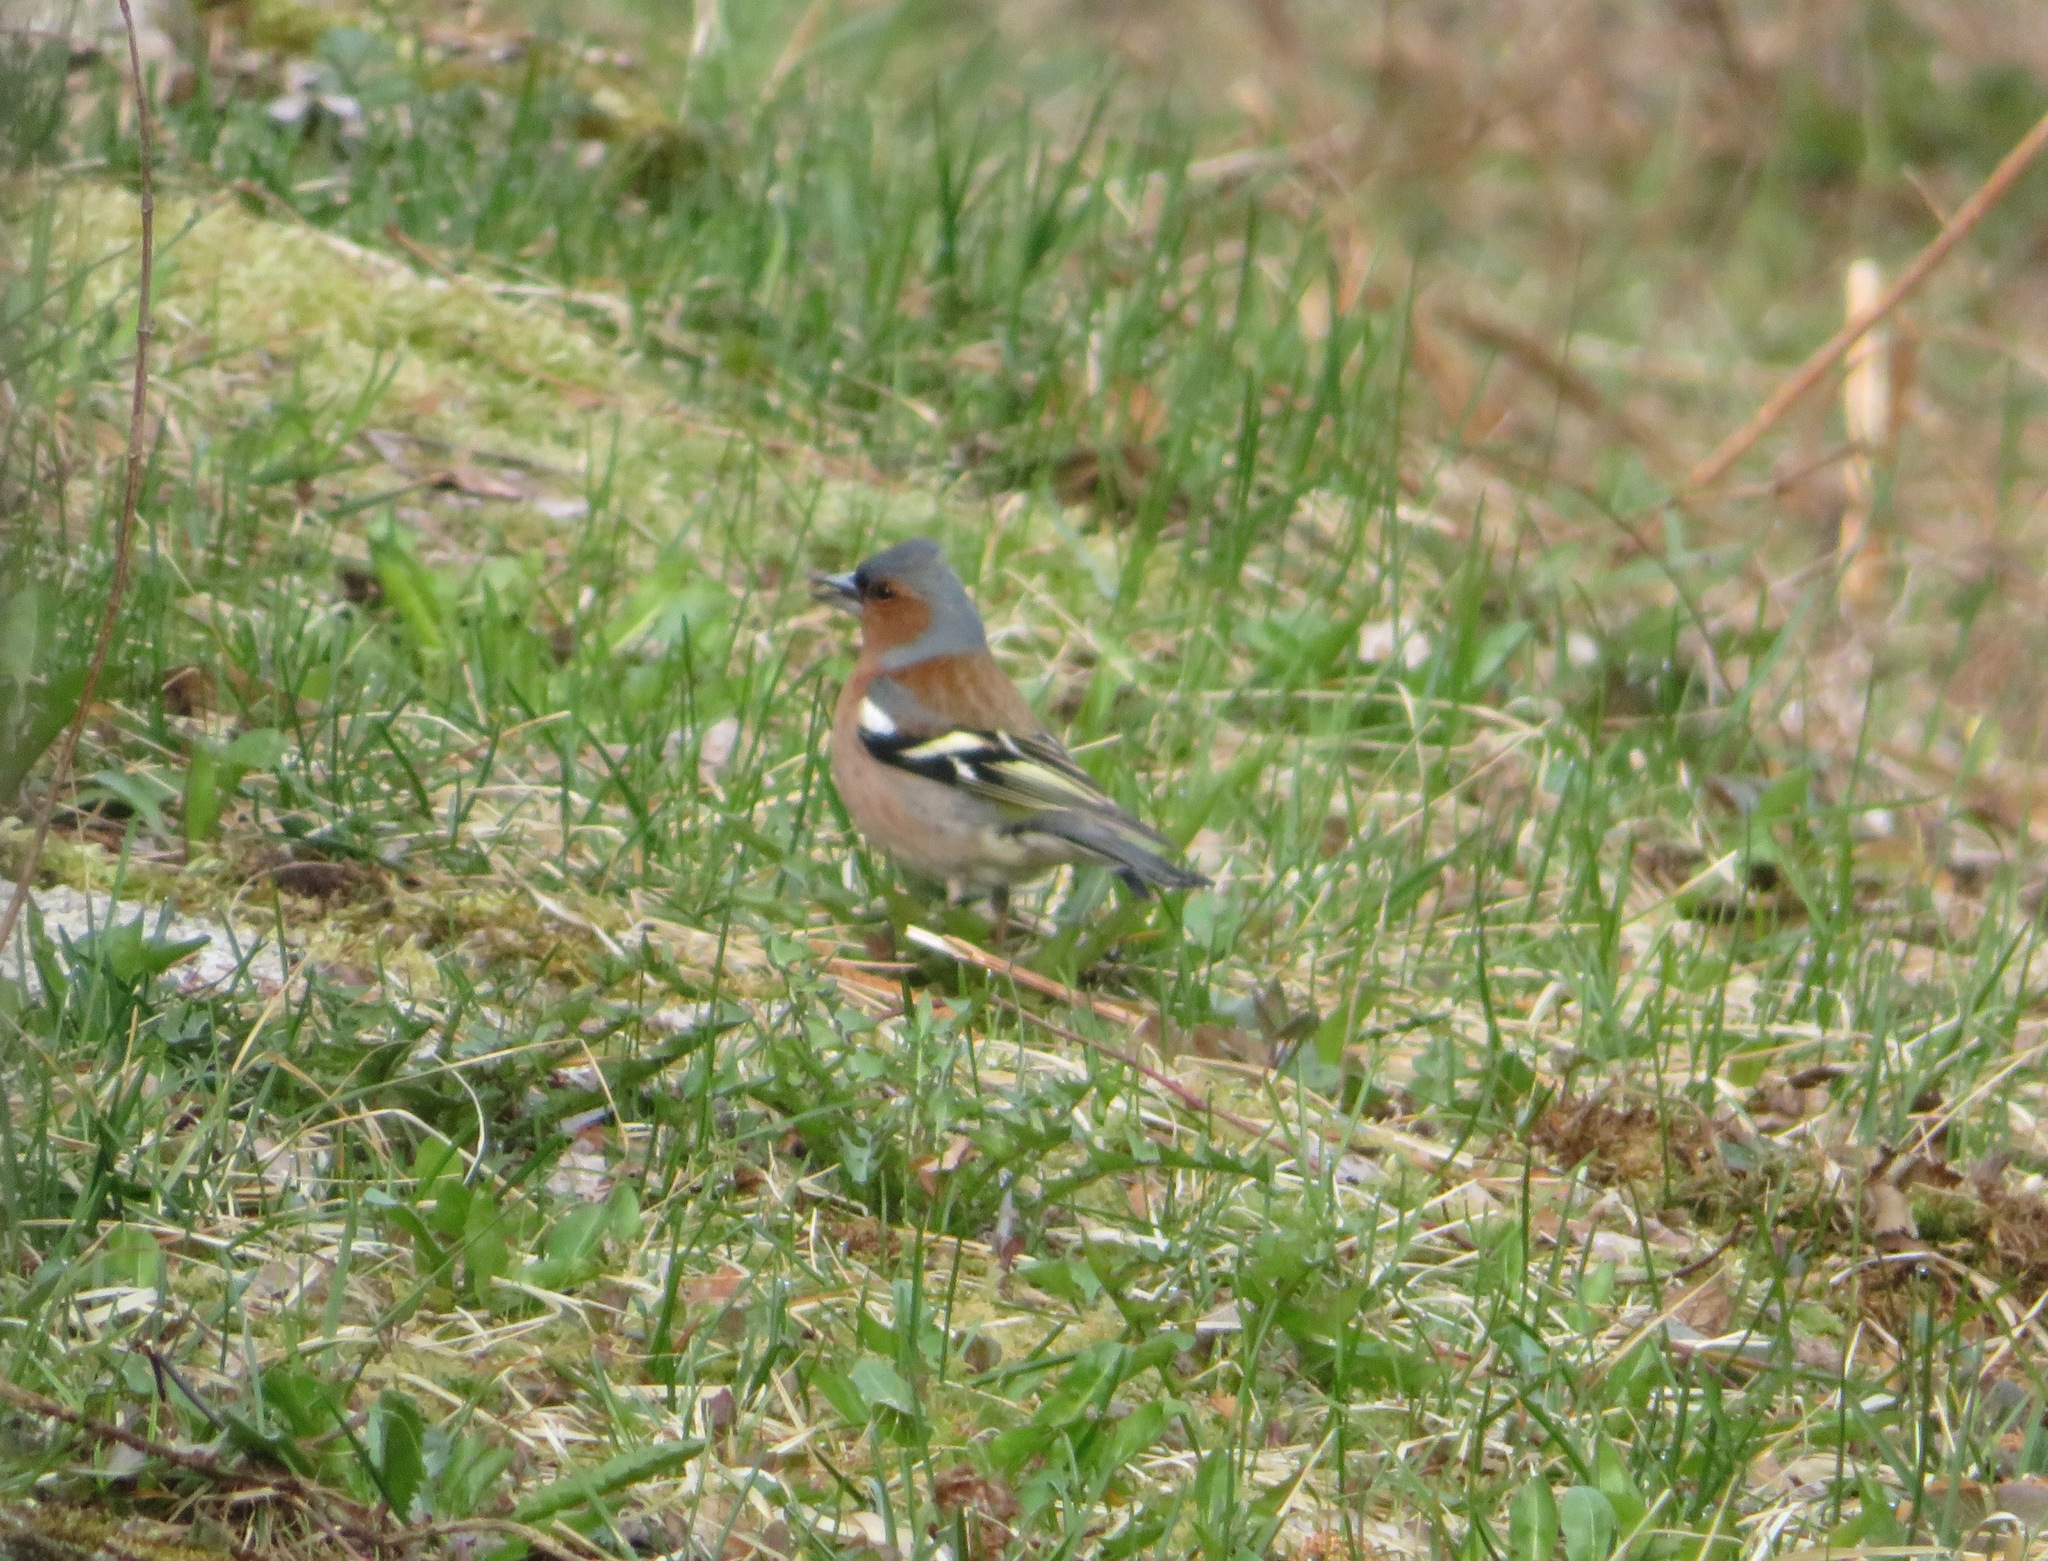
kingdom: Animalia
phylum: Chordata
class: Aves
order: Passeriformes
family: Fringillidae
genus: Fringilla
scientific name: Fringilla coelebs
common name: Common chaffinch
